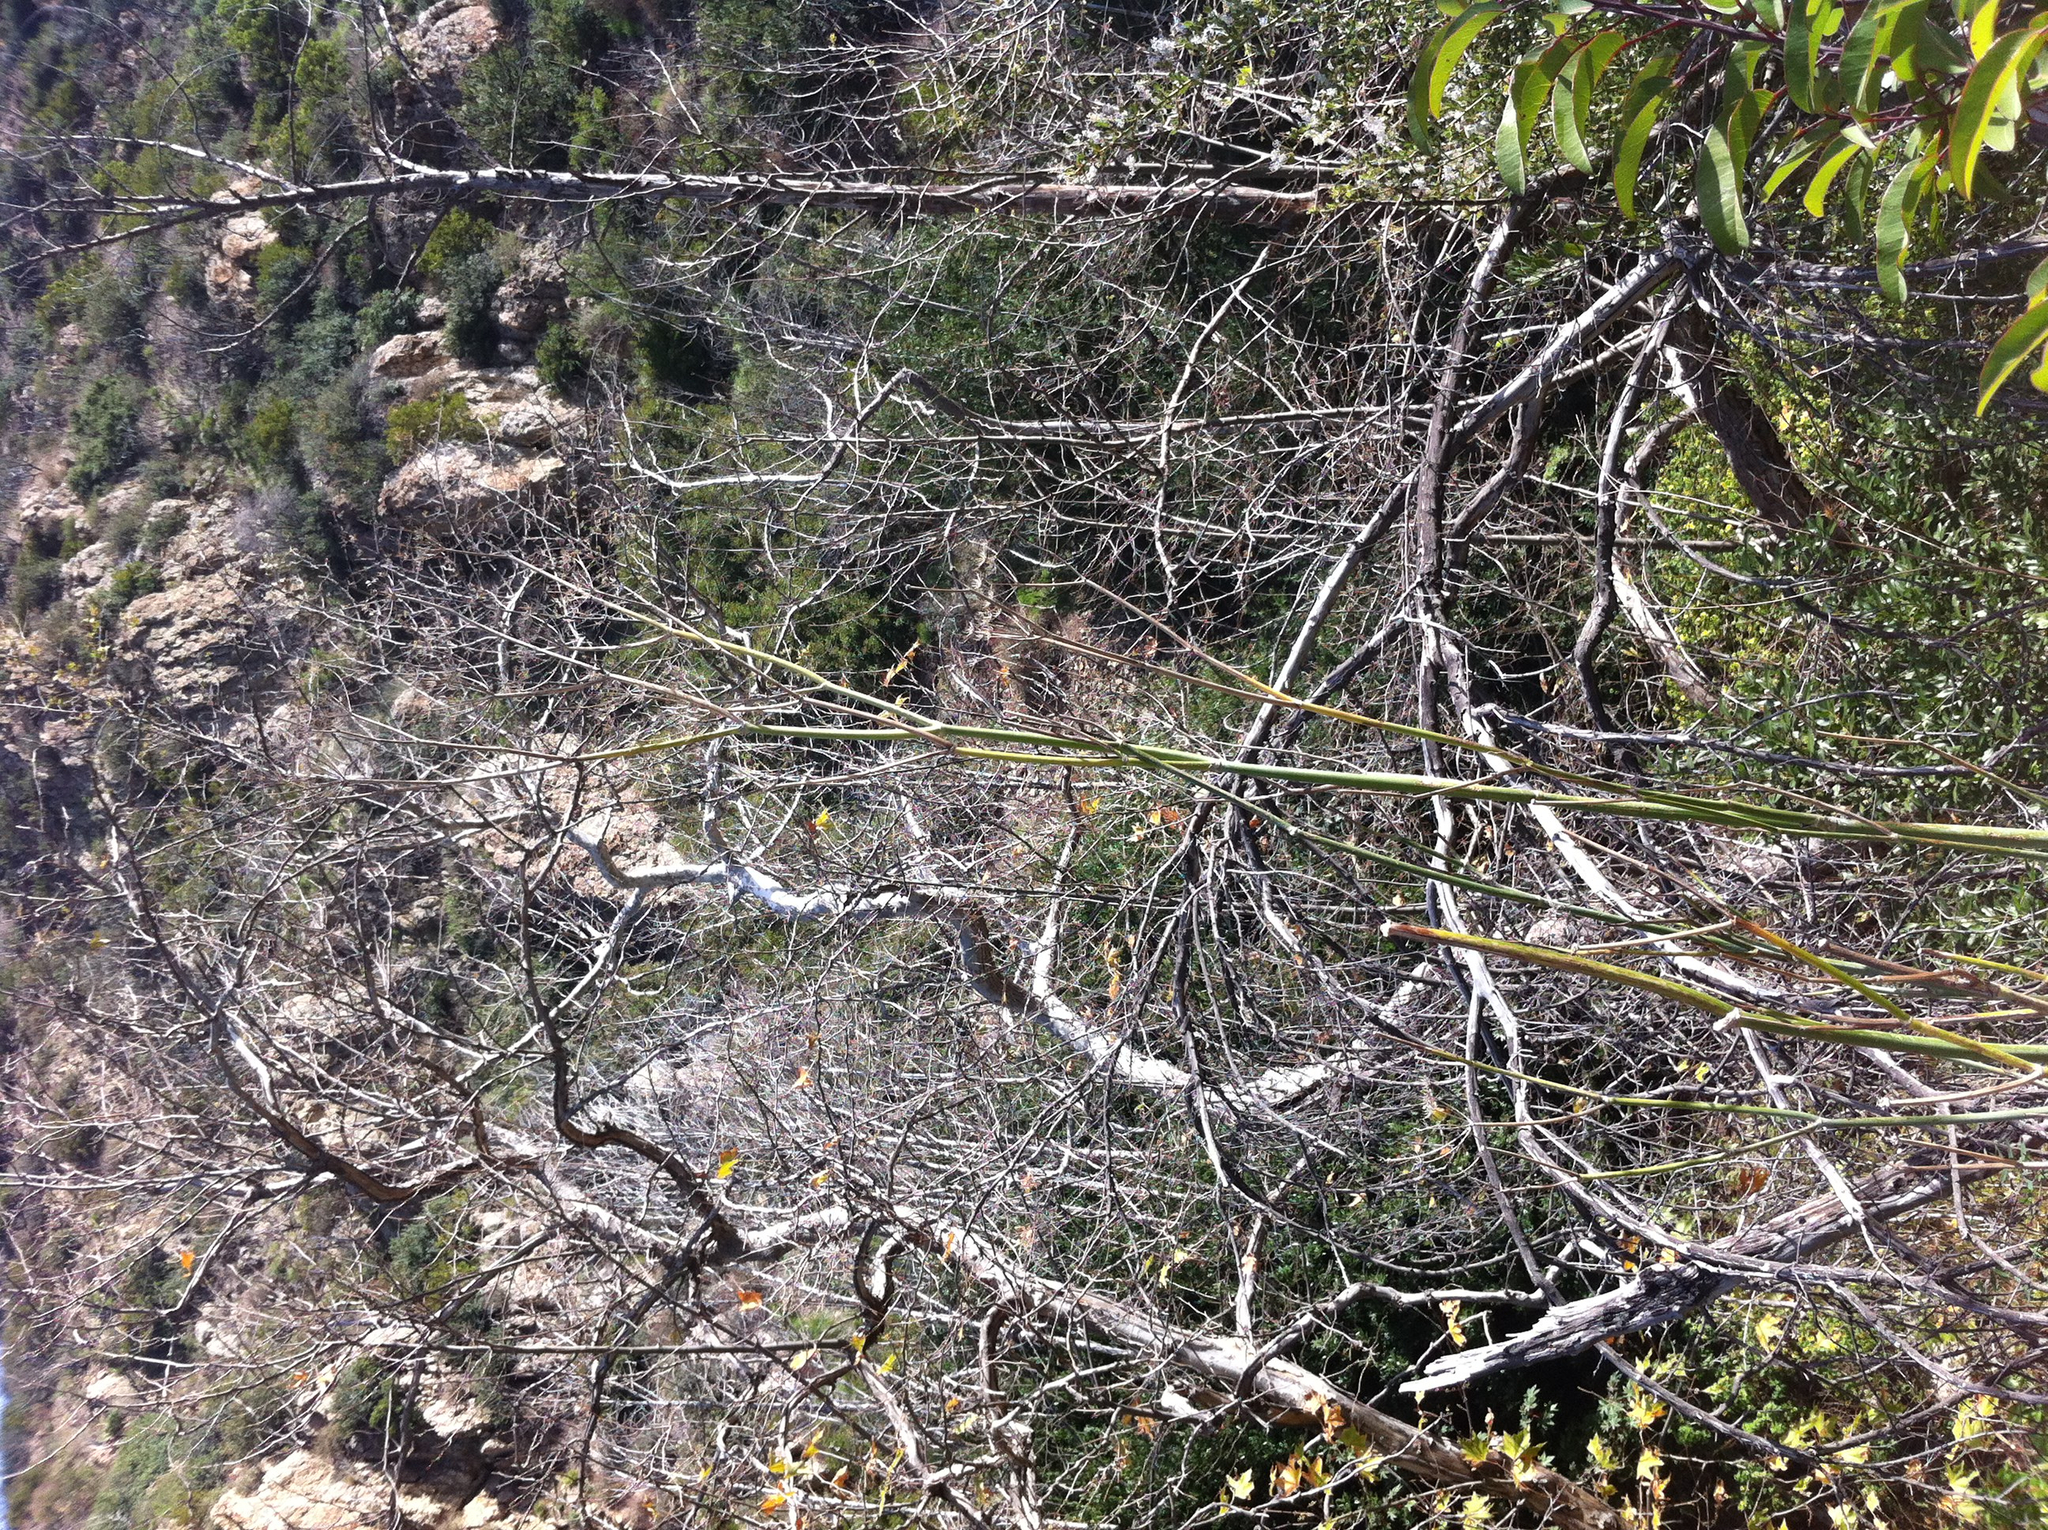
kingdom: Plantae
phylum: Tracheophyta
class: Magnoliopsida
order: Apiales
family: Apiaceae
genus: Foeniculum
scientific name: Foeniculum vulgare
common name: Fennel
